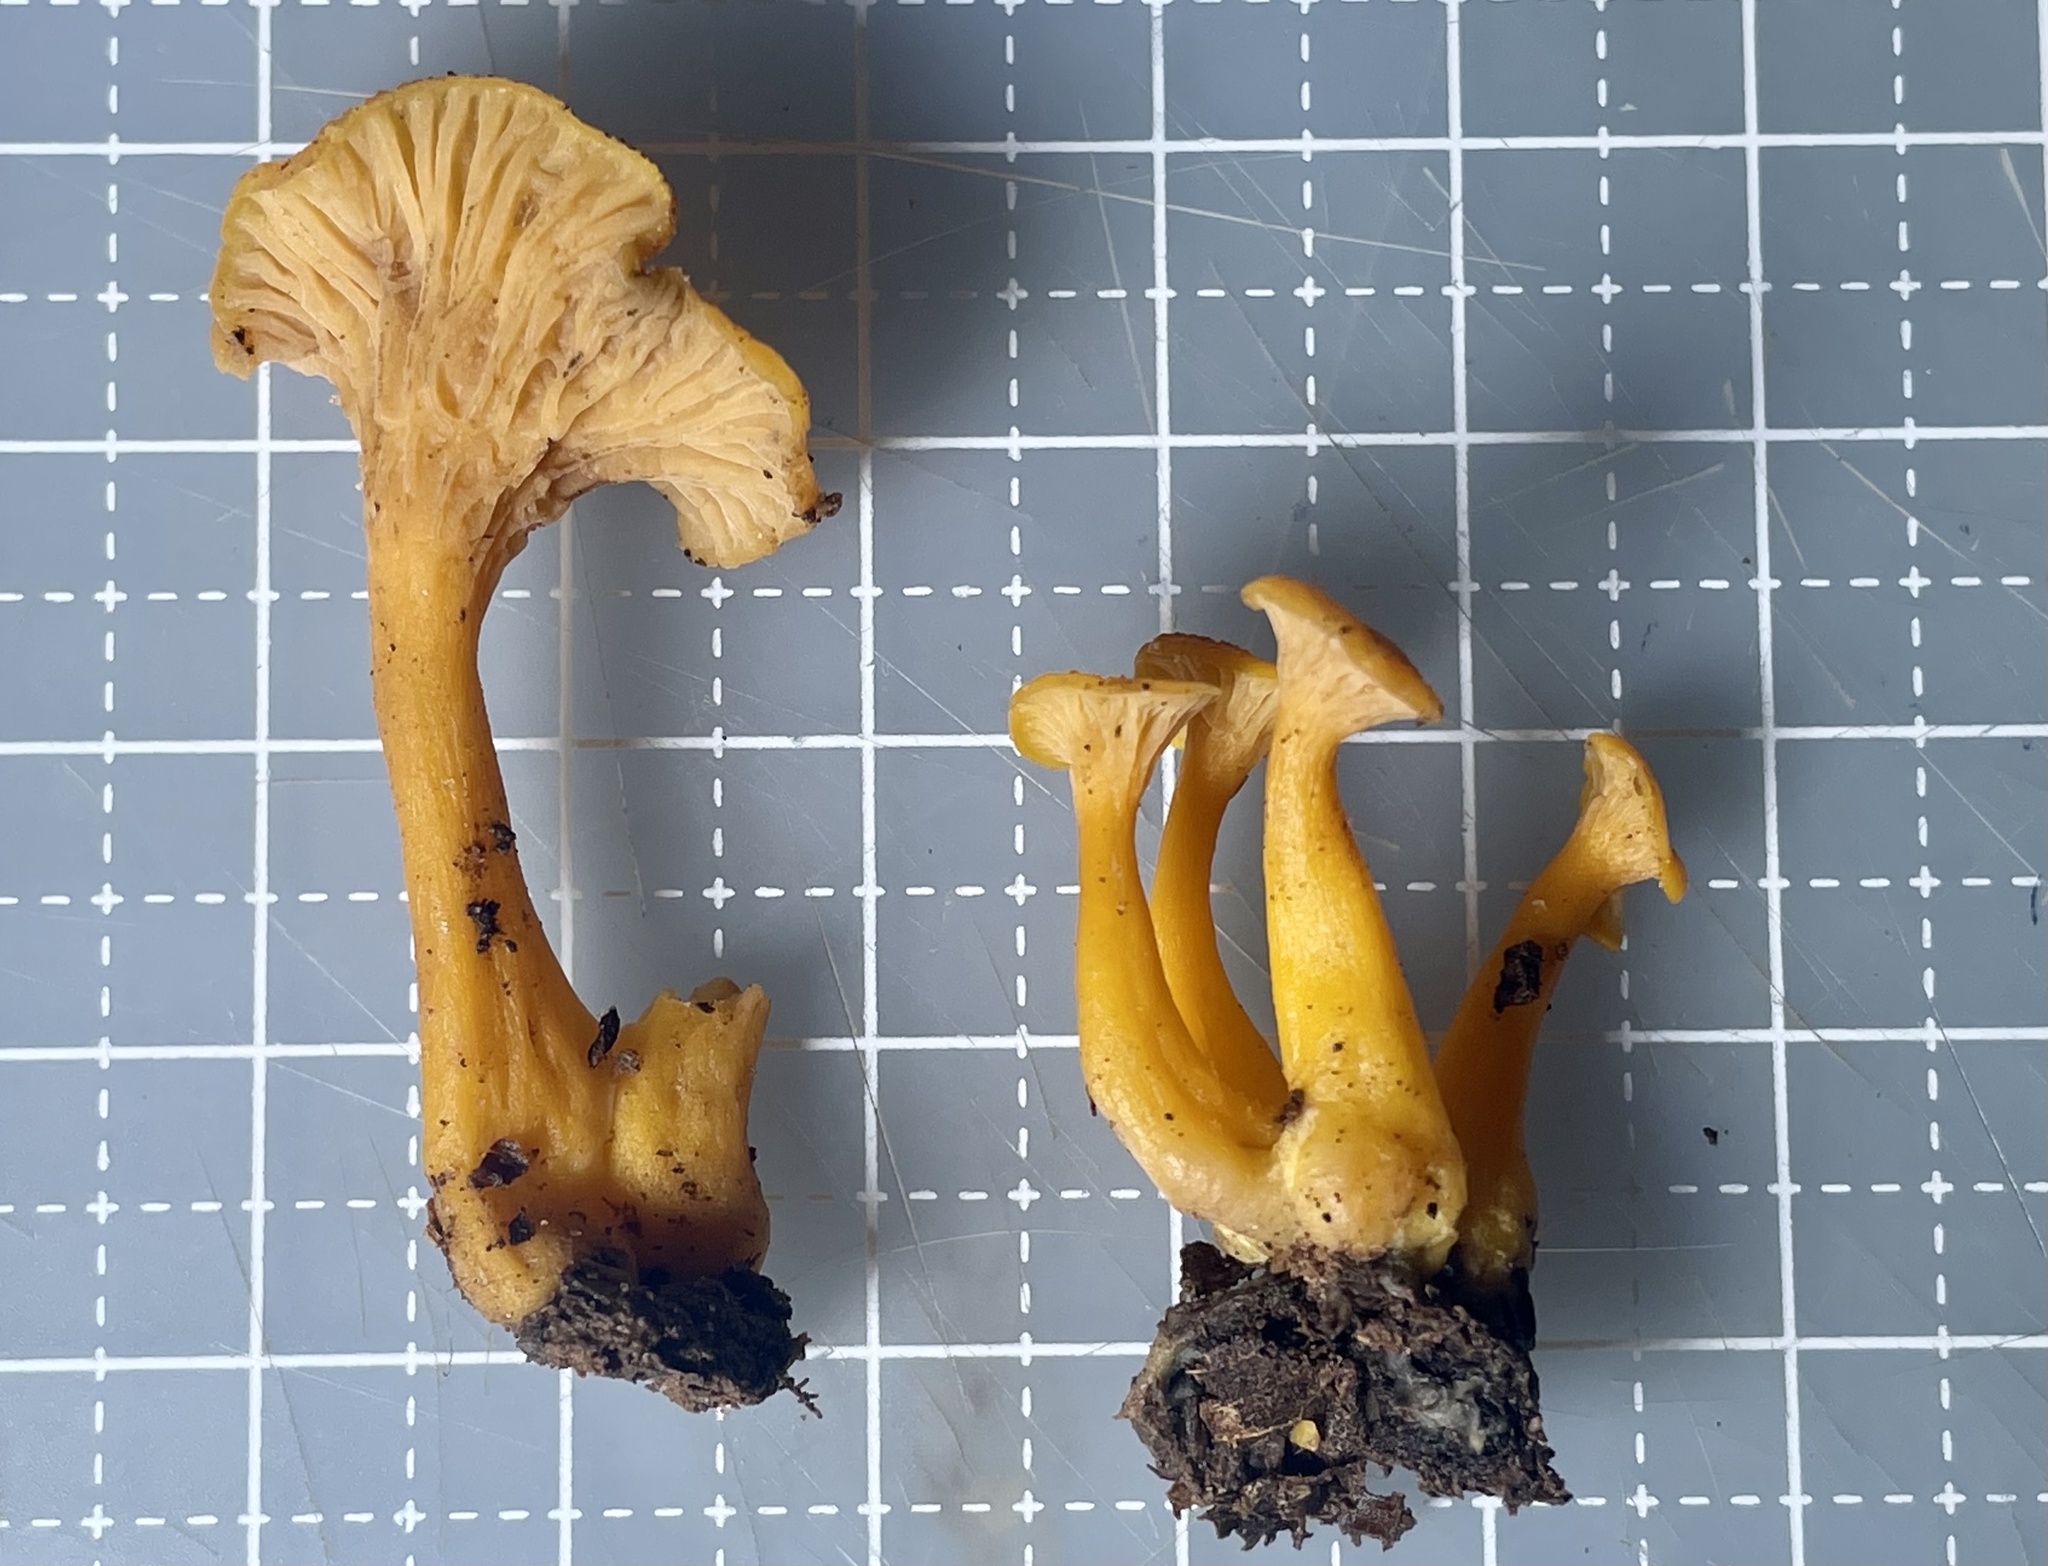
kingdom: Fungi
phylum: Basidiomycota
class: Agaricomycetes
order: Cantharellales
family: Hydnaceae
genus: Craterellus
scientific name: Craterellus ignicolor
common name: Flame chanterelle
